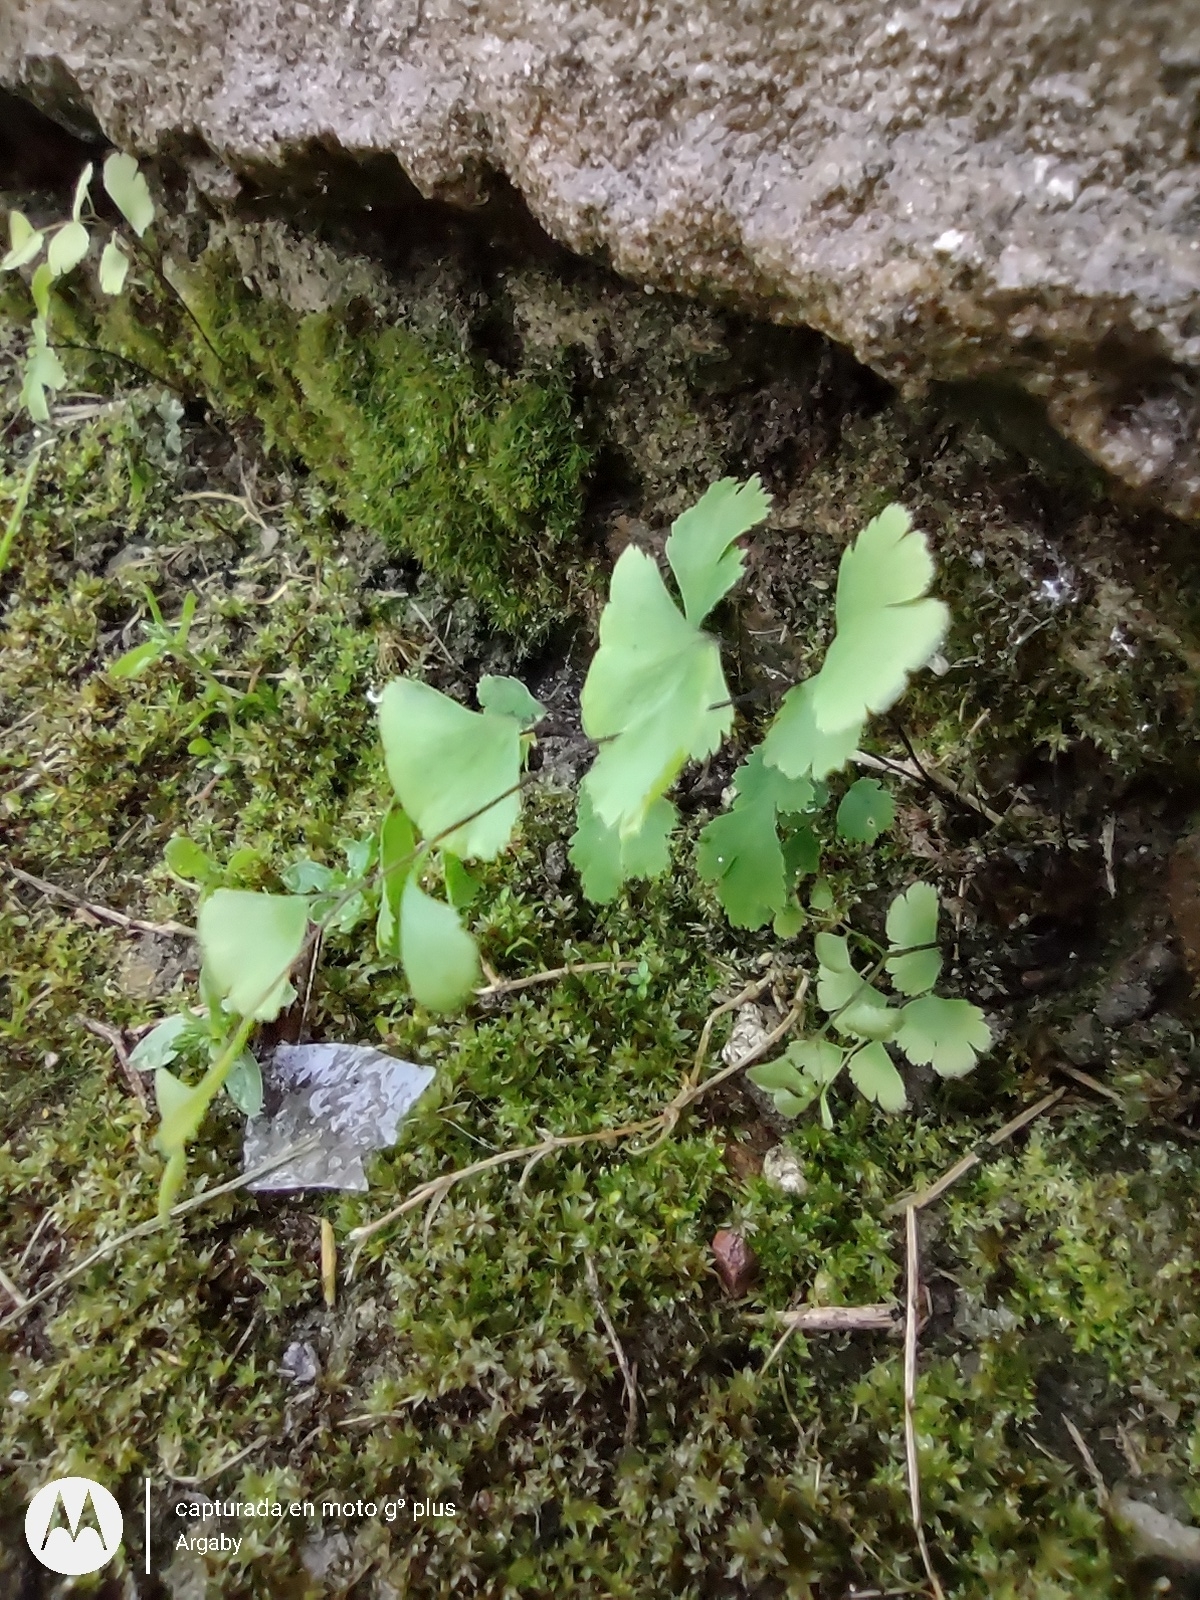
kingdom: Plantae
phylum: Tracheophyta
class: Polypodiopsida
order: Polypodiales
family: Pteridaceae
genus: Adiantum
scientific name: Adiantum capillus-veneris
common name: Maidenhair fern
